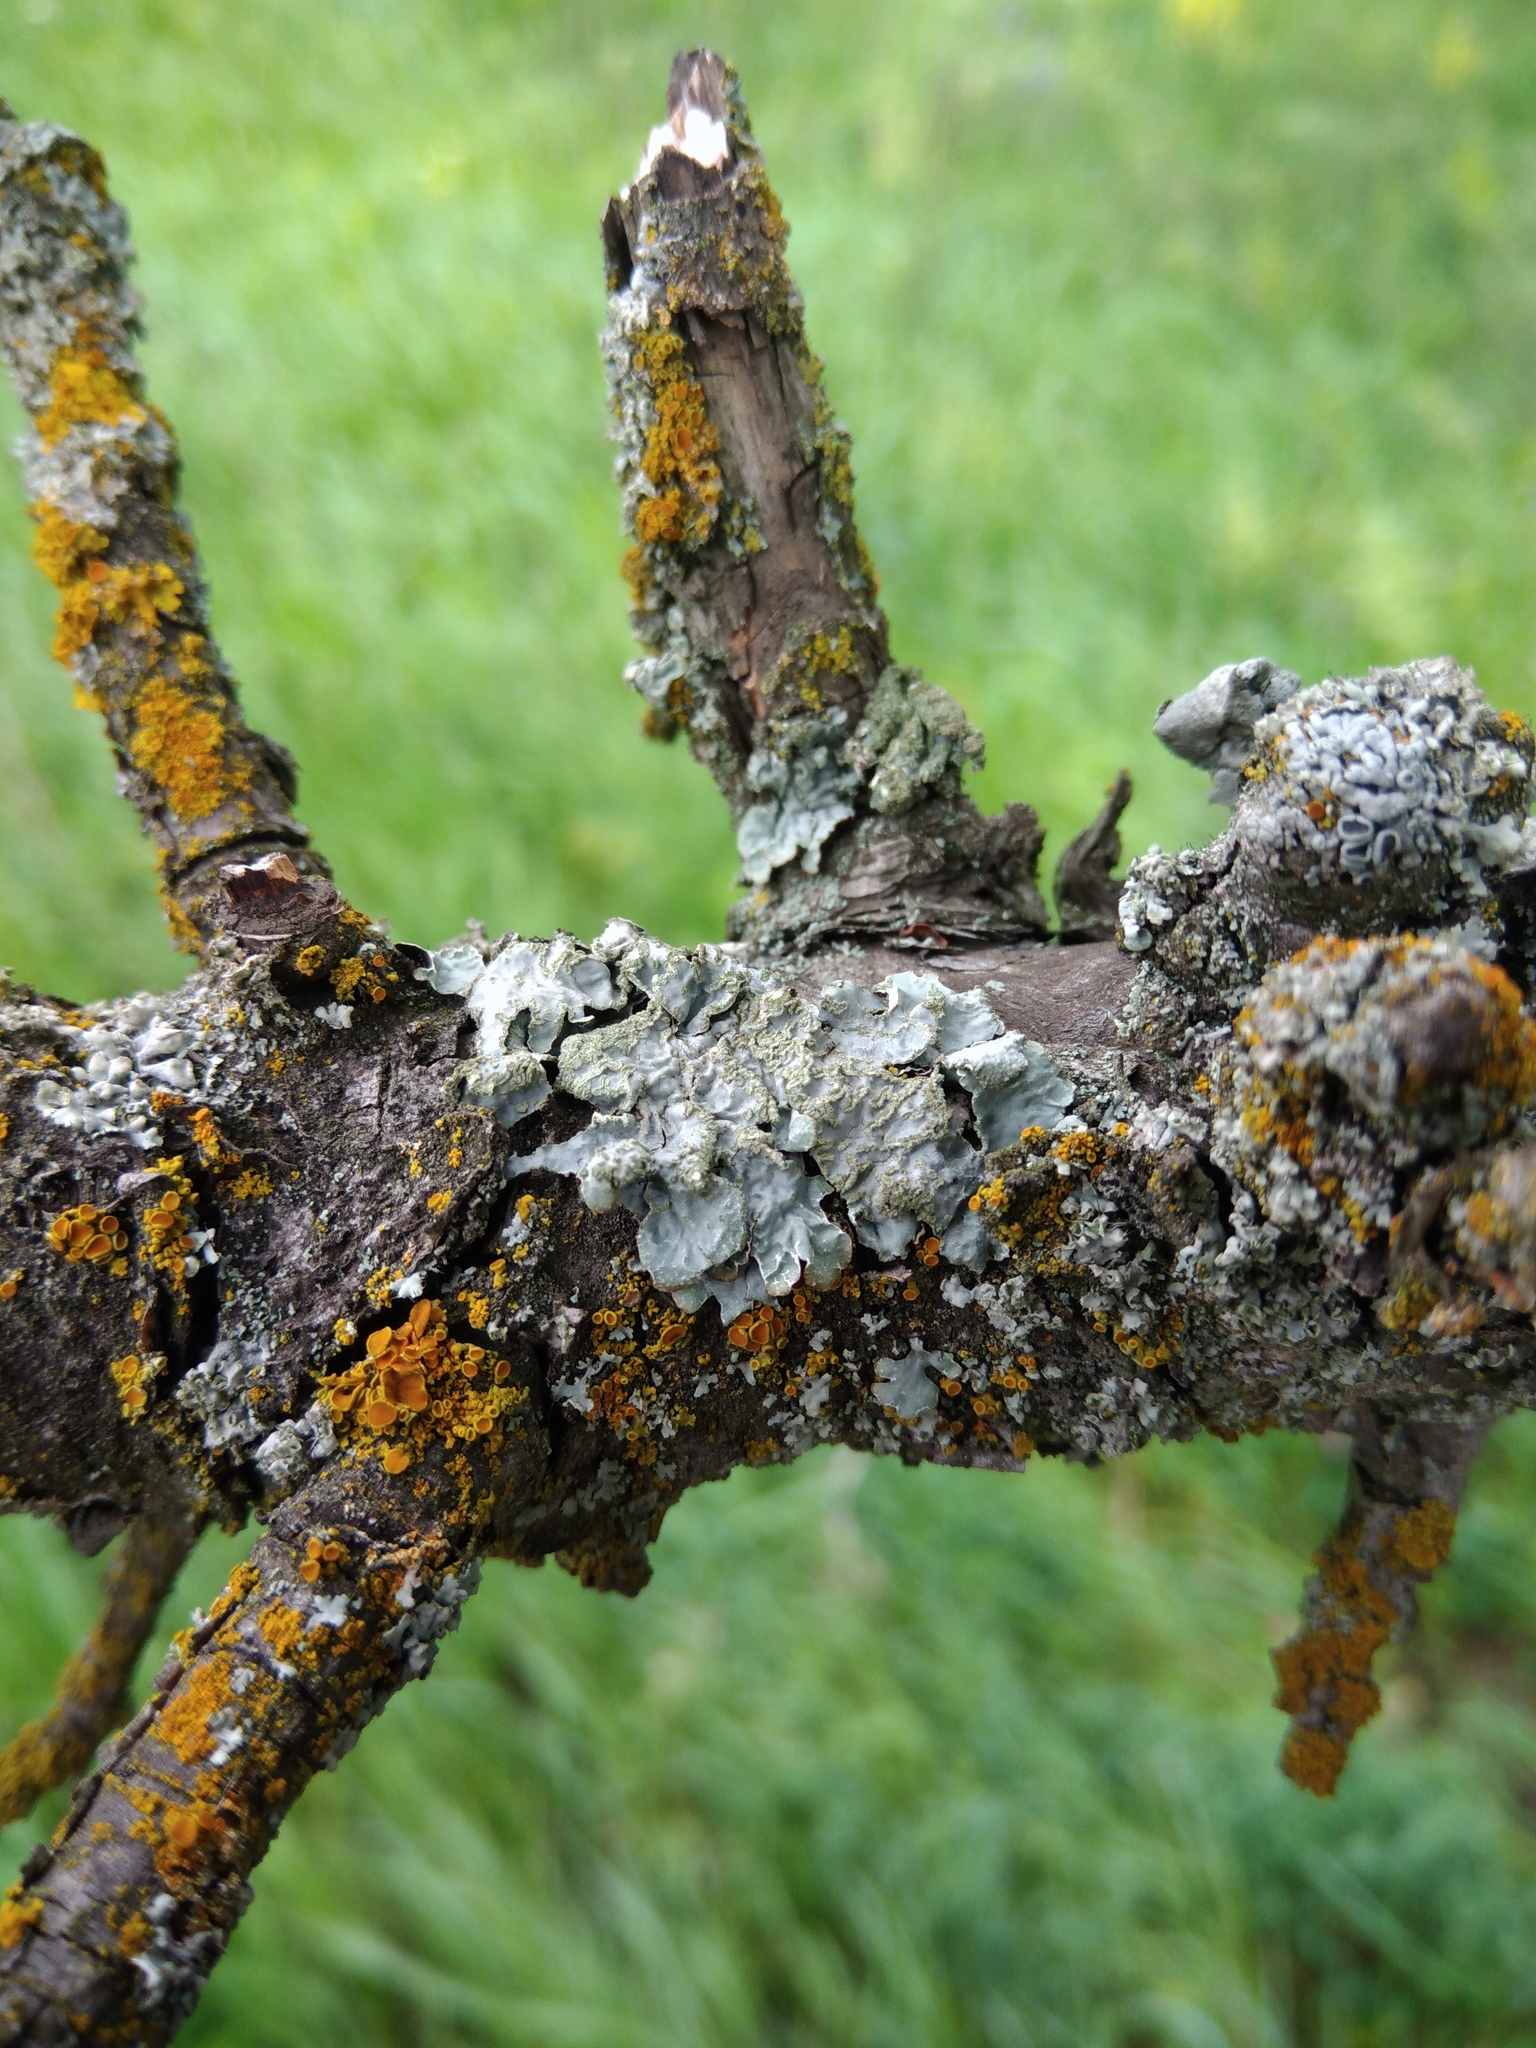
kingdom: Fungi
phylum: Ascomycota
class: Lecanoromycetes
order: Lecanorales
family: Parmeliaceae
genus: Parmelia
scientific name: Parmelia sulcata
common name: Netted shield lichen
